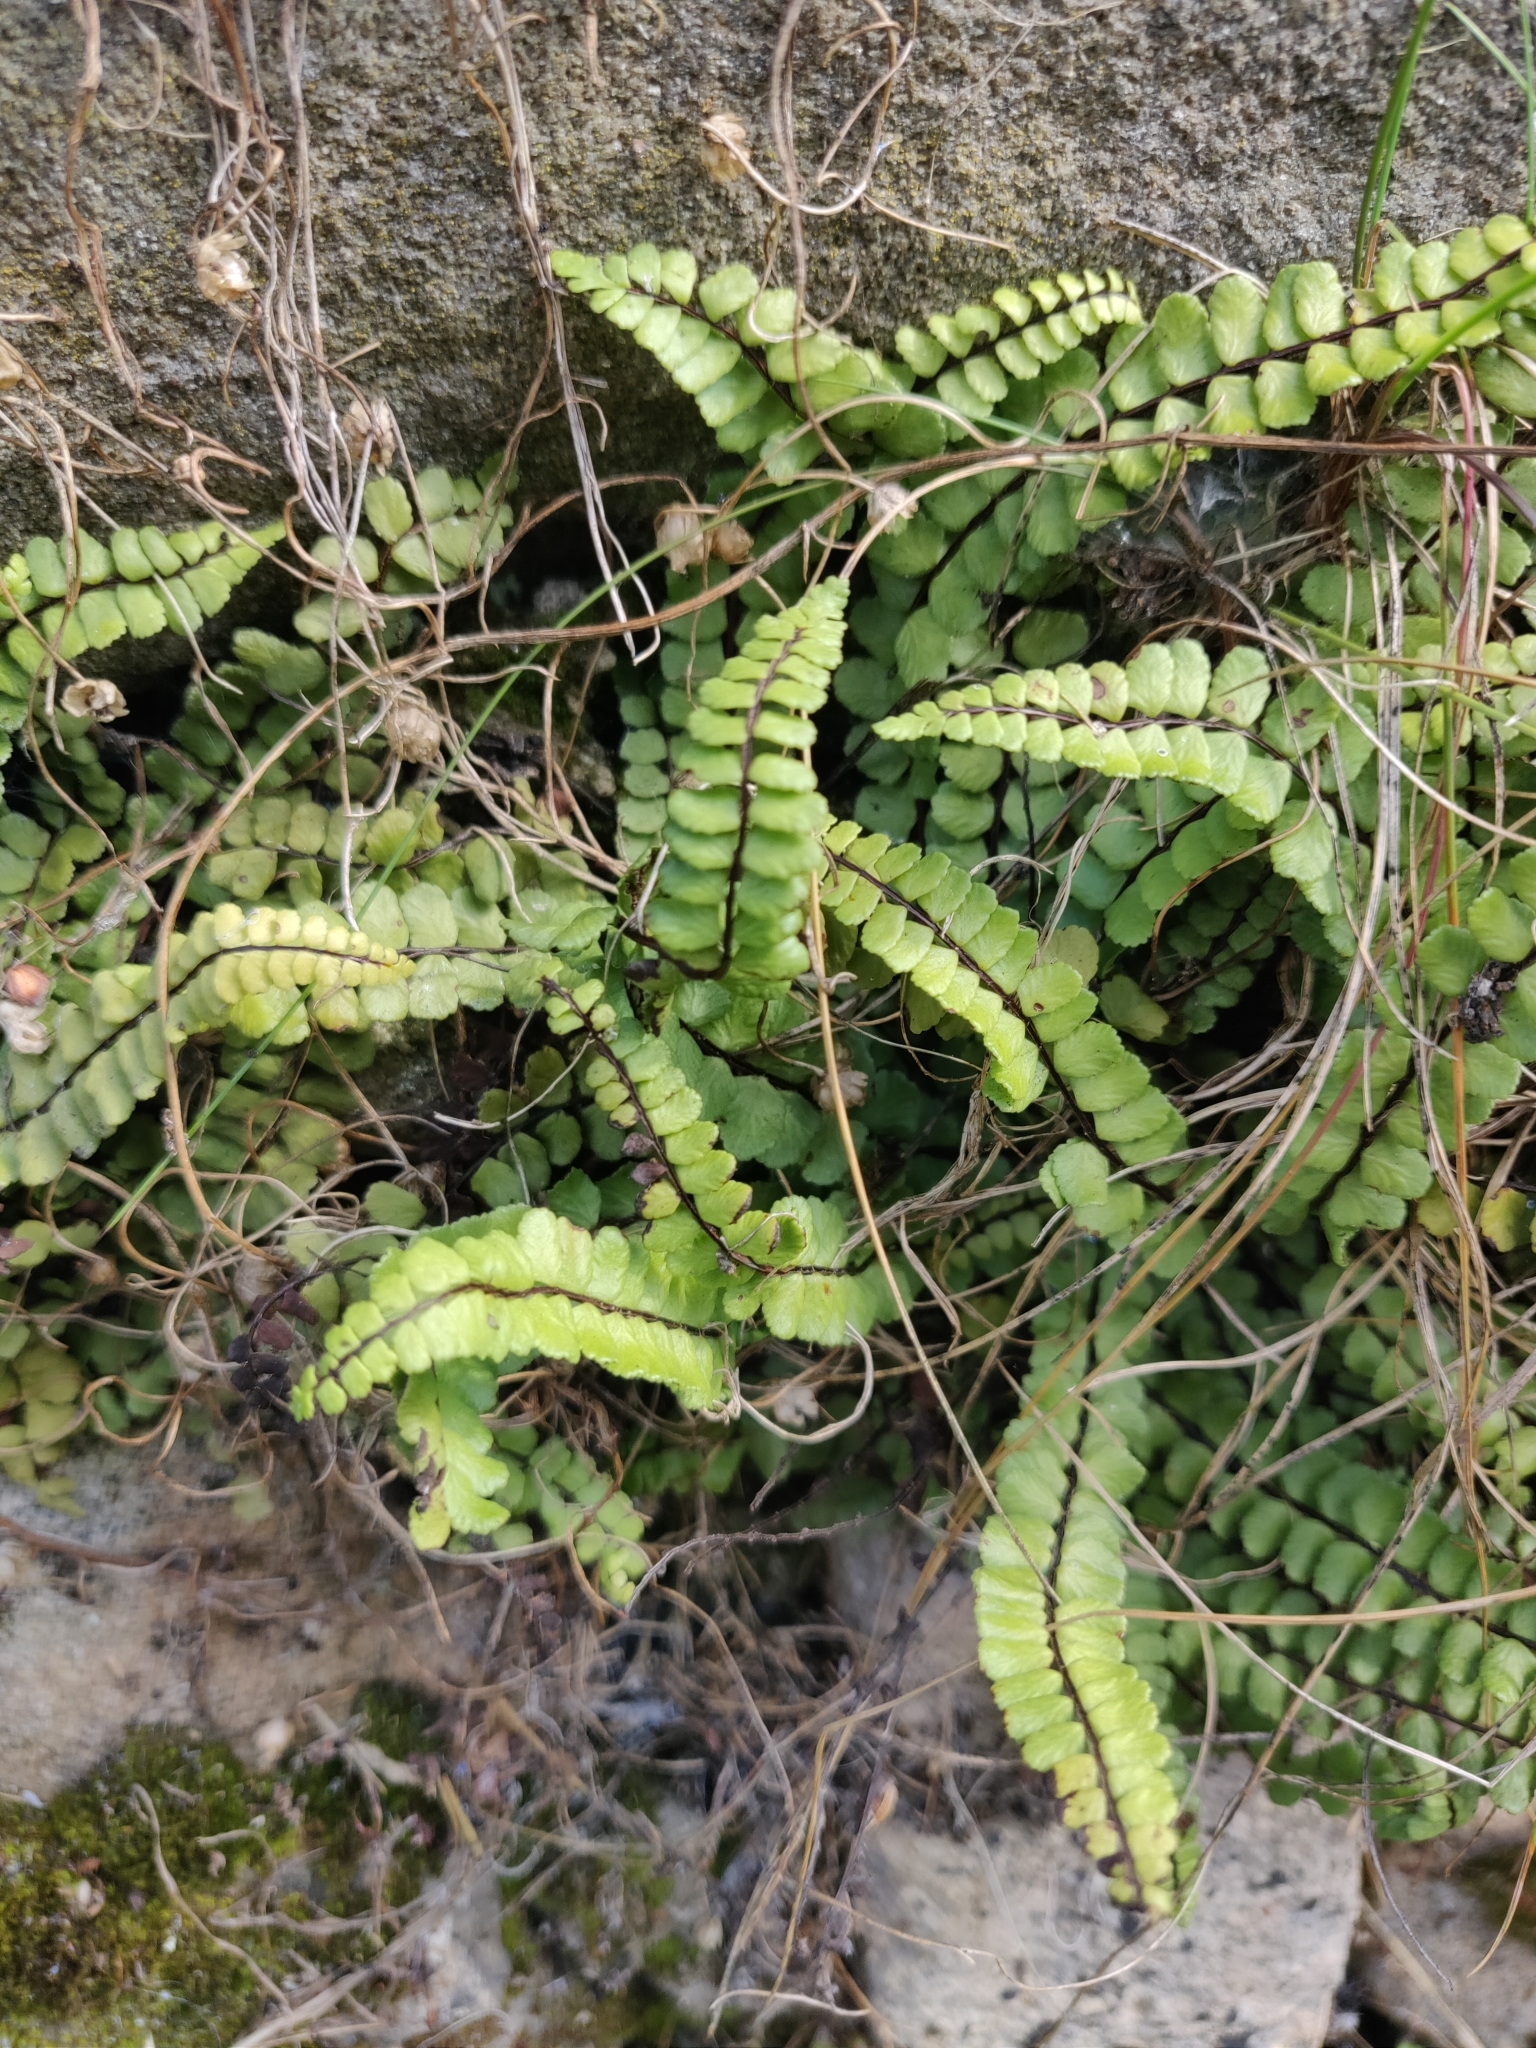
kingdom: Plantae
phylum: Tracheophyta
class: Polypodiopsida
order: Polypodiales
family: Aspleniaceae
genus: Asplenium
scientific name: Asplenium trichomanes
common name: Maidenhair spleenwort
